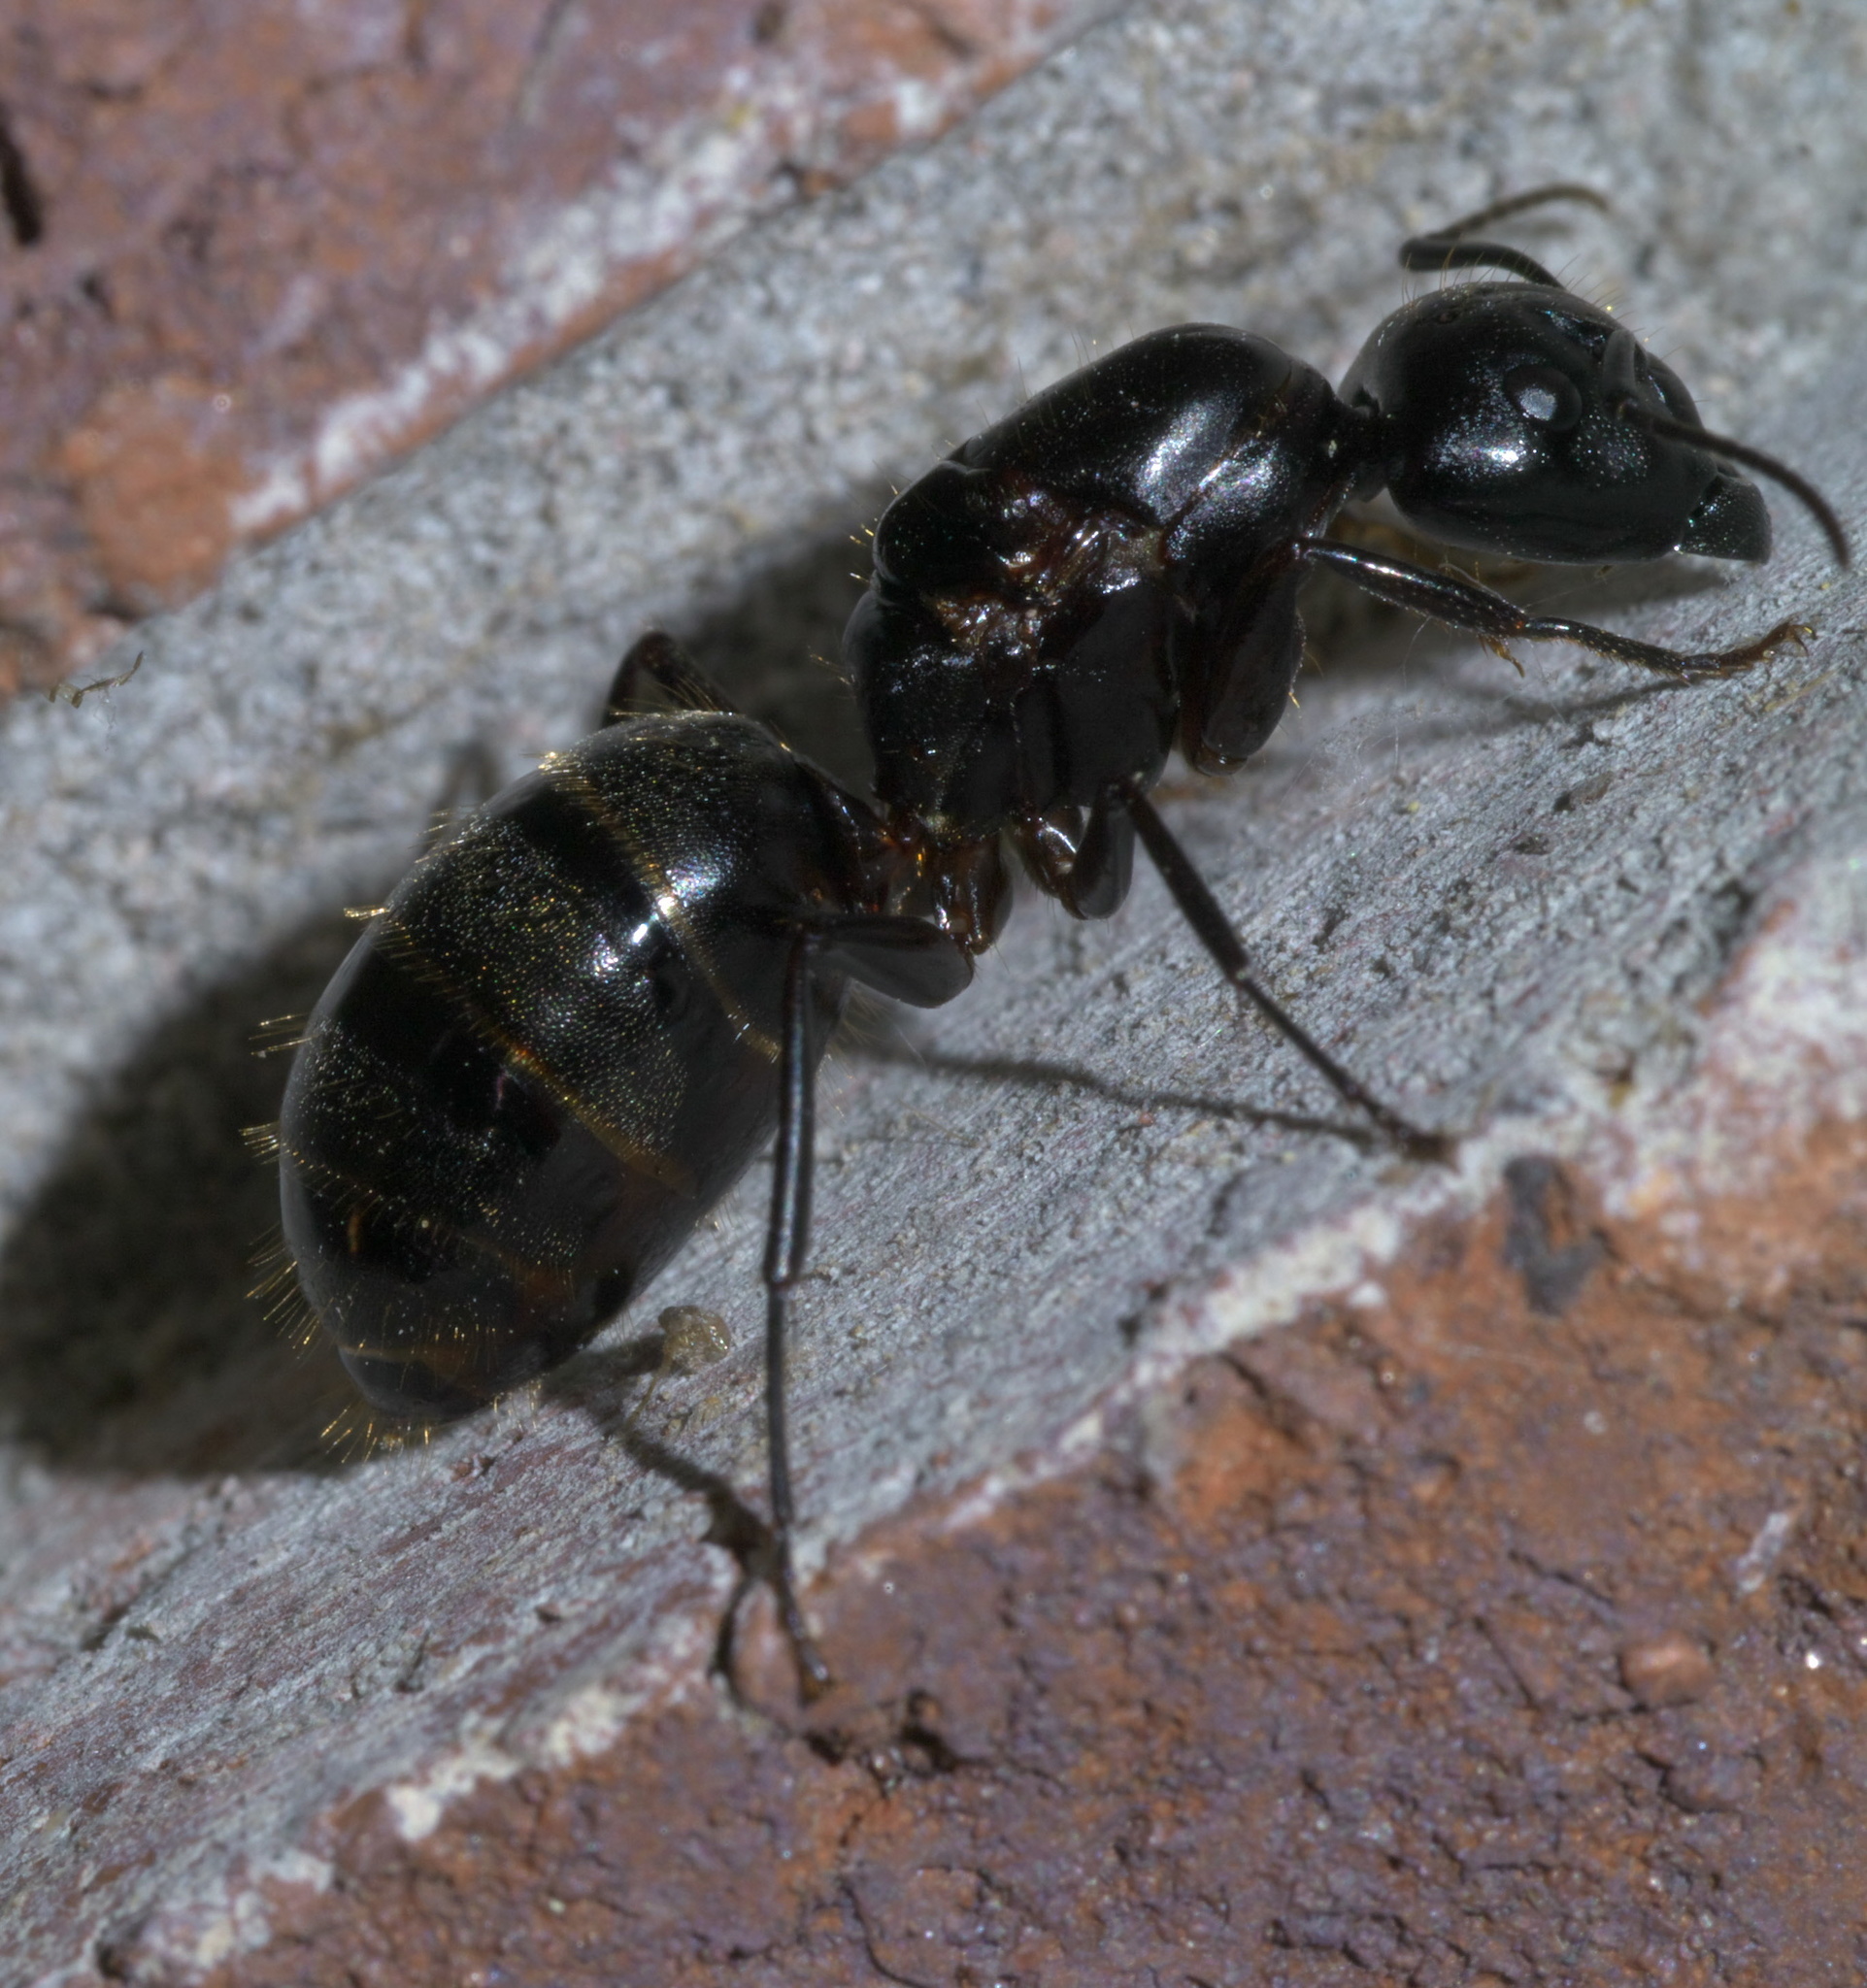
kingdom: Animalia
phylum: Arthropoda
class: Insecta
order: Hymenoptera
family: Formicidae
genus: Camponotus
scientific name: Camponotus pennsylvanicus
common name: Black carpenter ant
